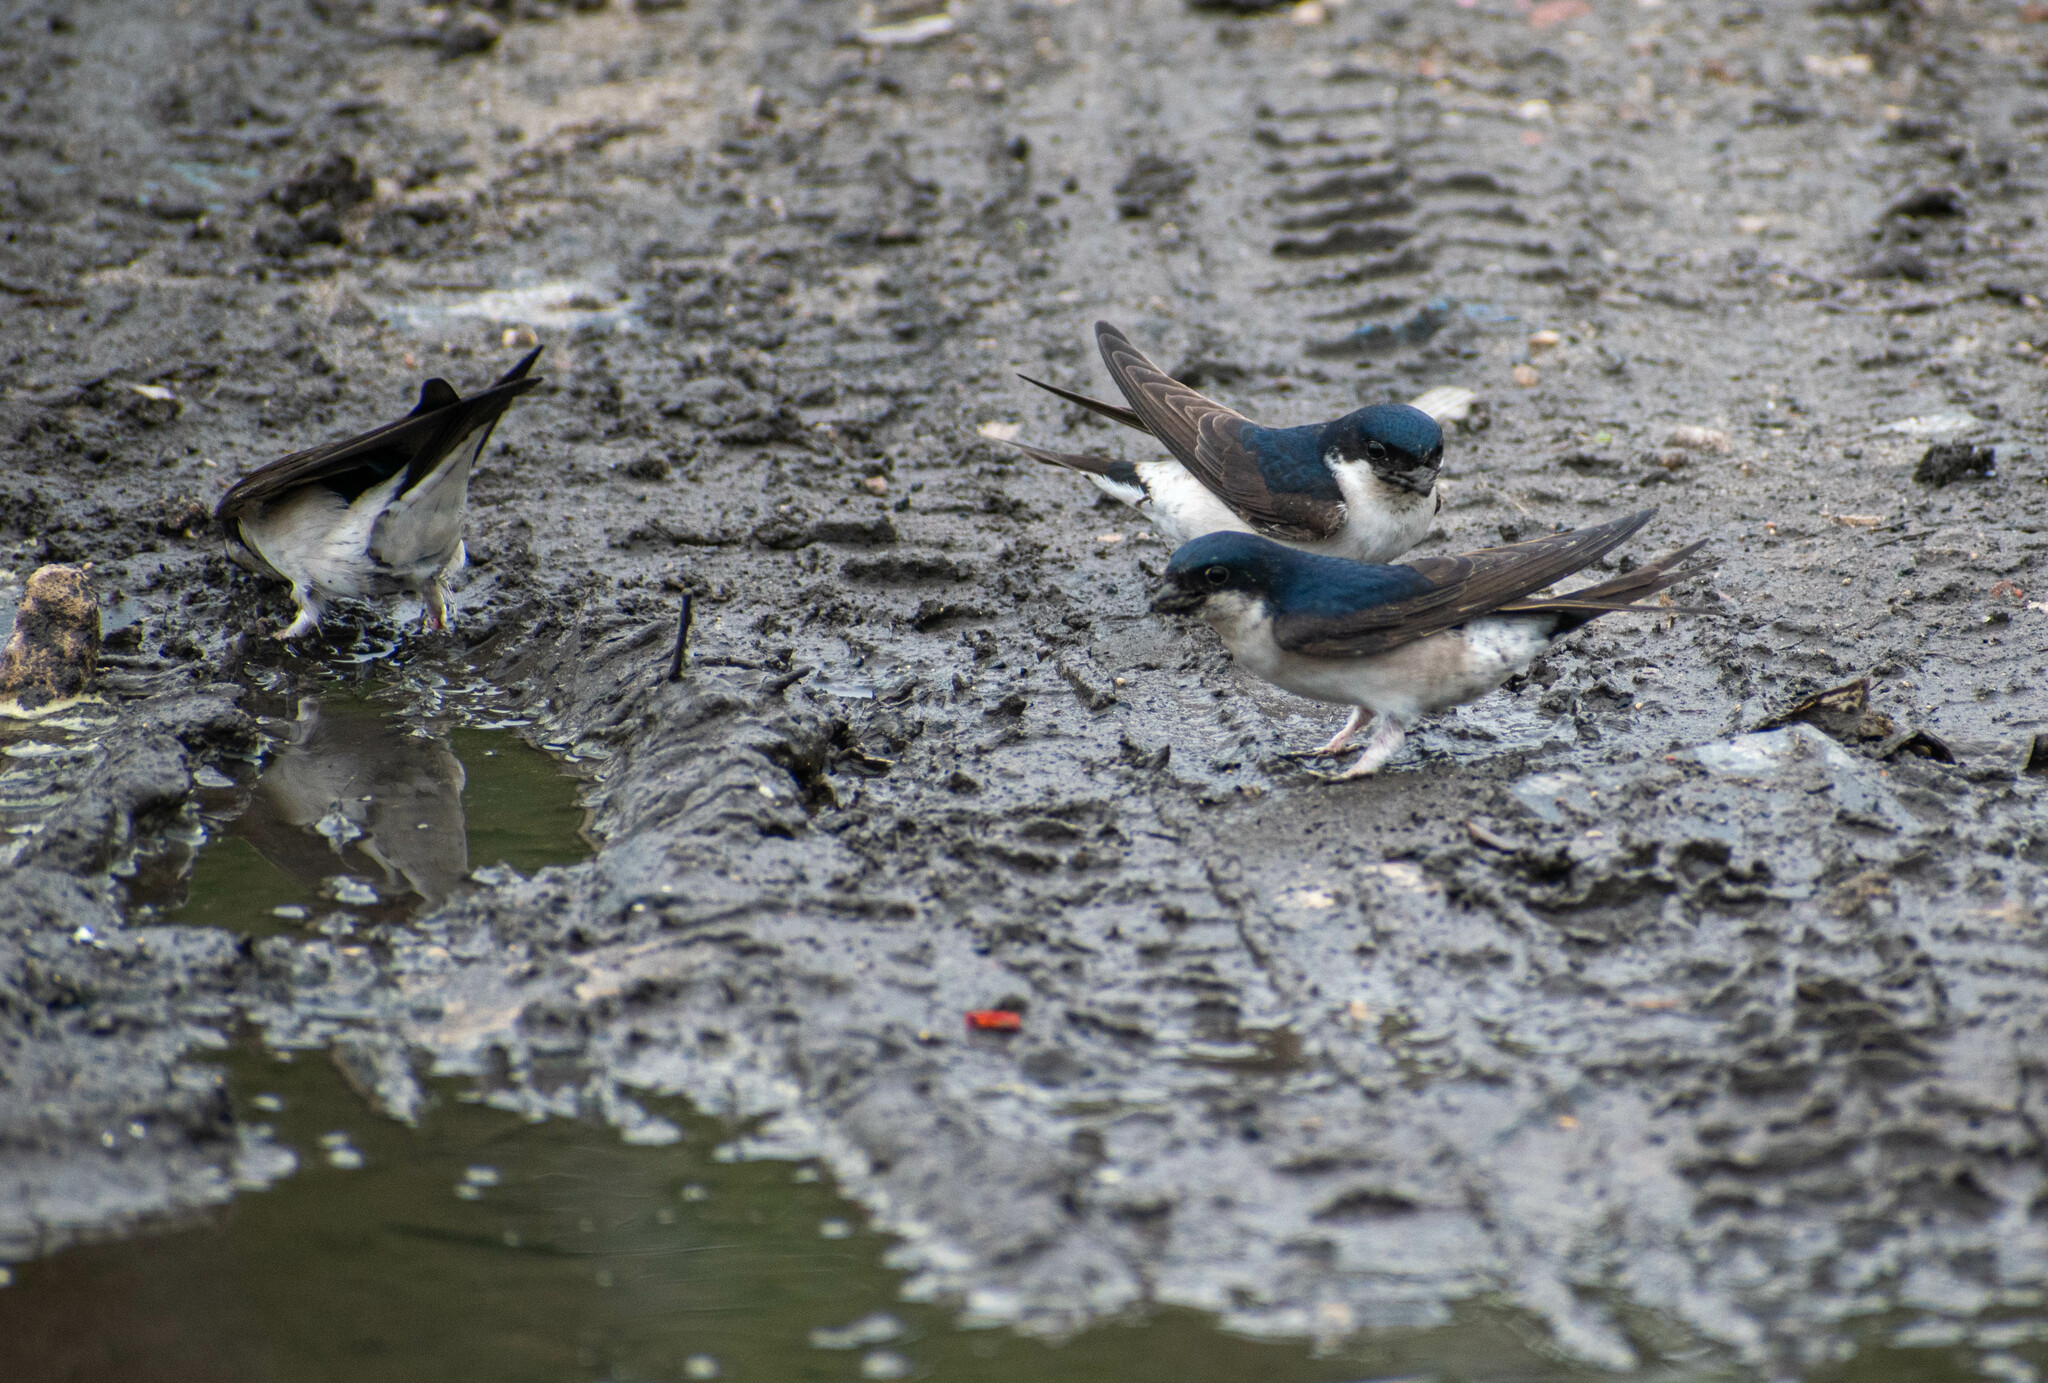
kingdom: Animalia
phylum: Chordata
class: Aves
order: Passeriformes
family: Hirundinidae
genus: Delichon
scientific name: Delichon urbicum
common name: Common house martin
